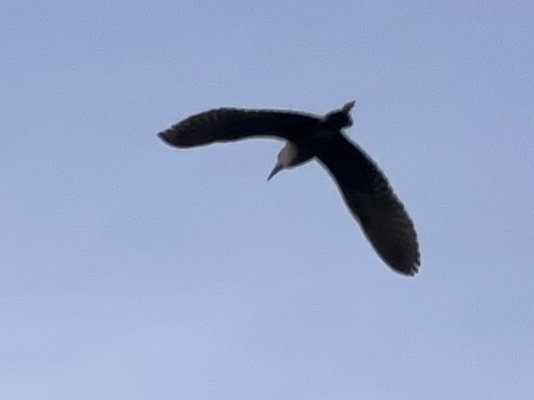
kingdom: Animalia
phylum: Chordata
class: Aves
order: Pelecaniformes
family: Ardeidae
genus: Nycticorax
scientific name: Nycticorax nycticorax
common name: Black-crowned night heron
